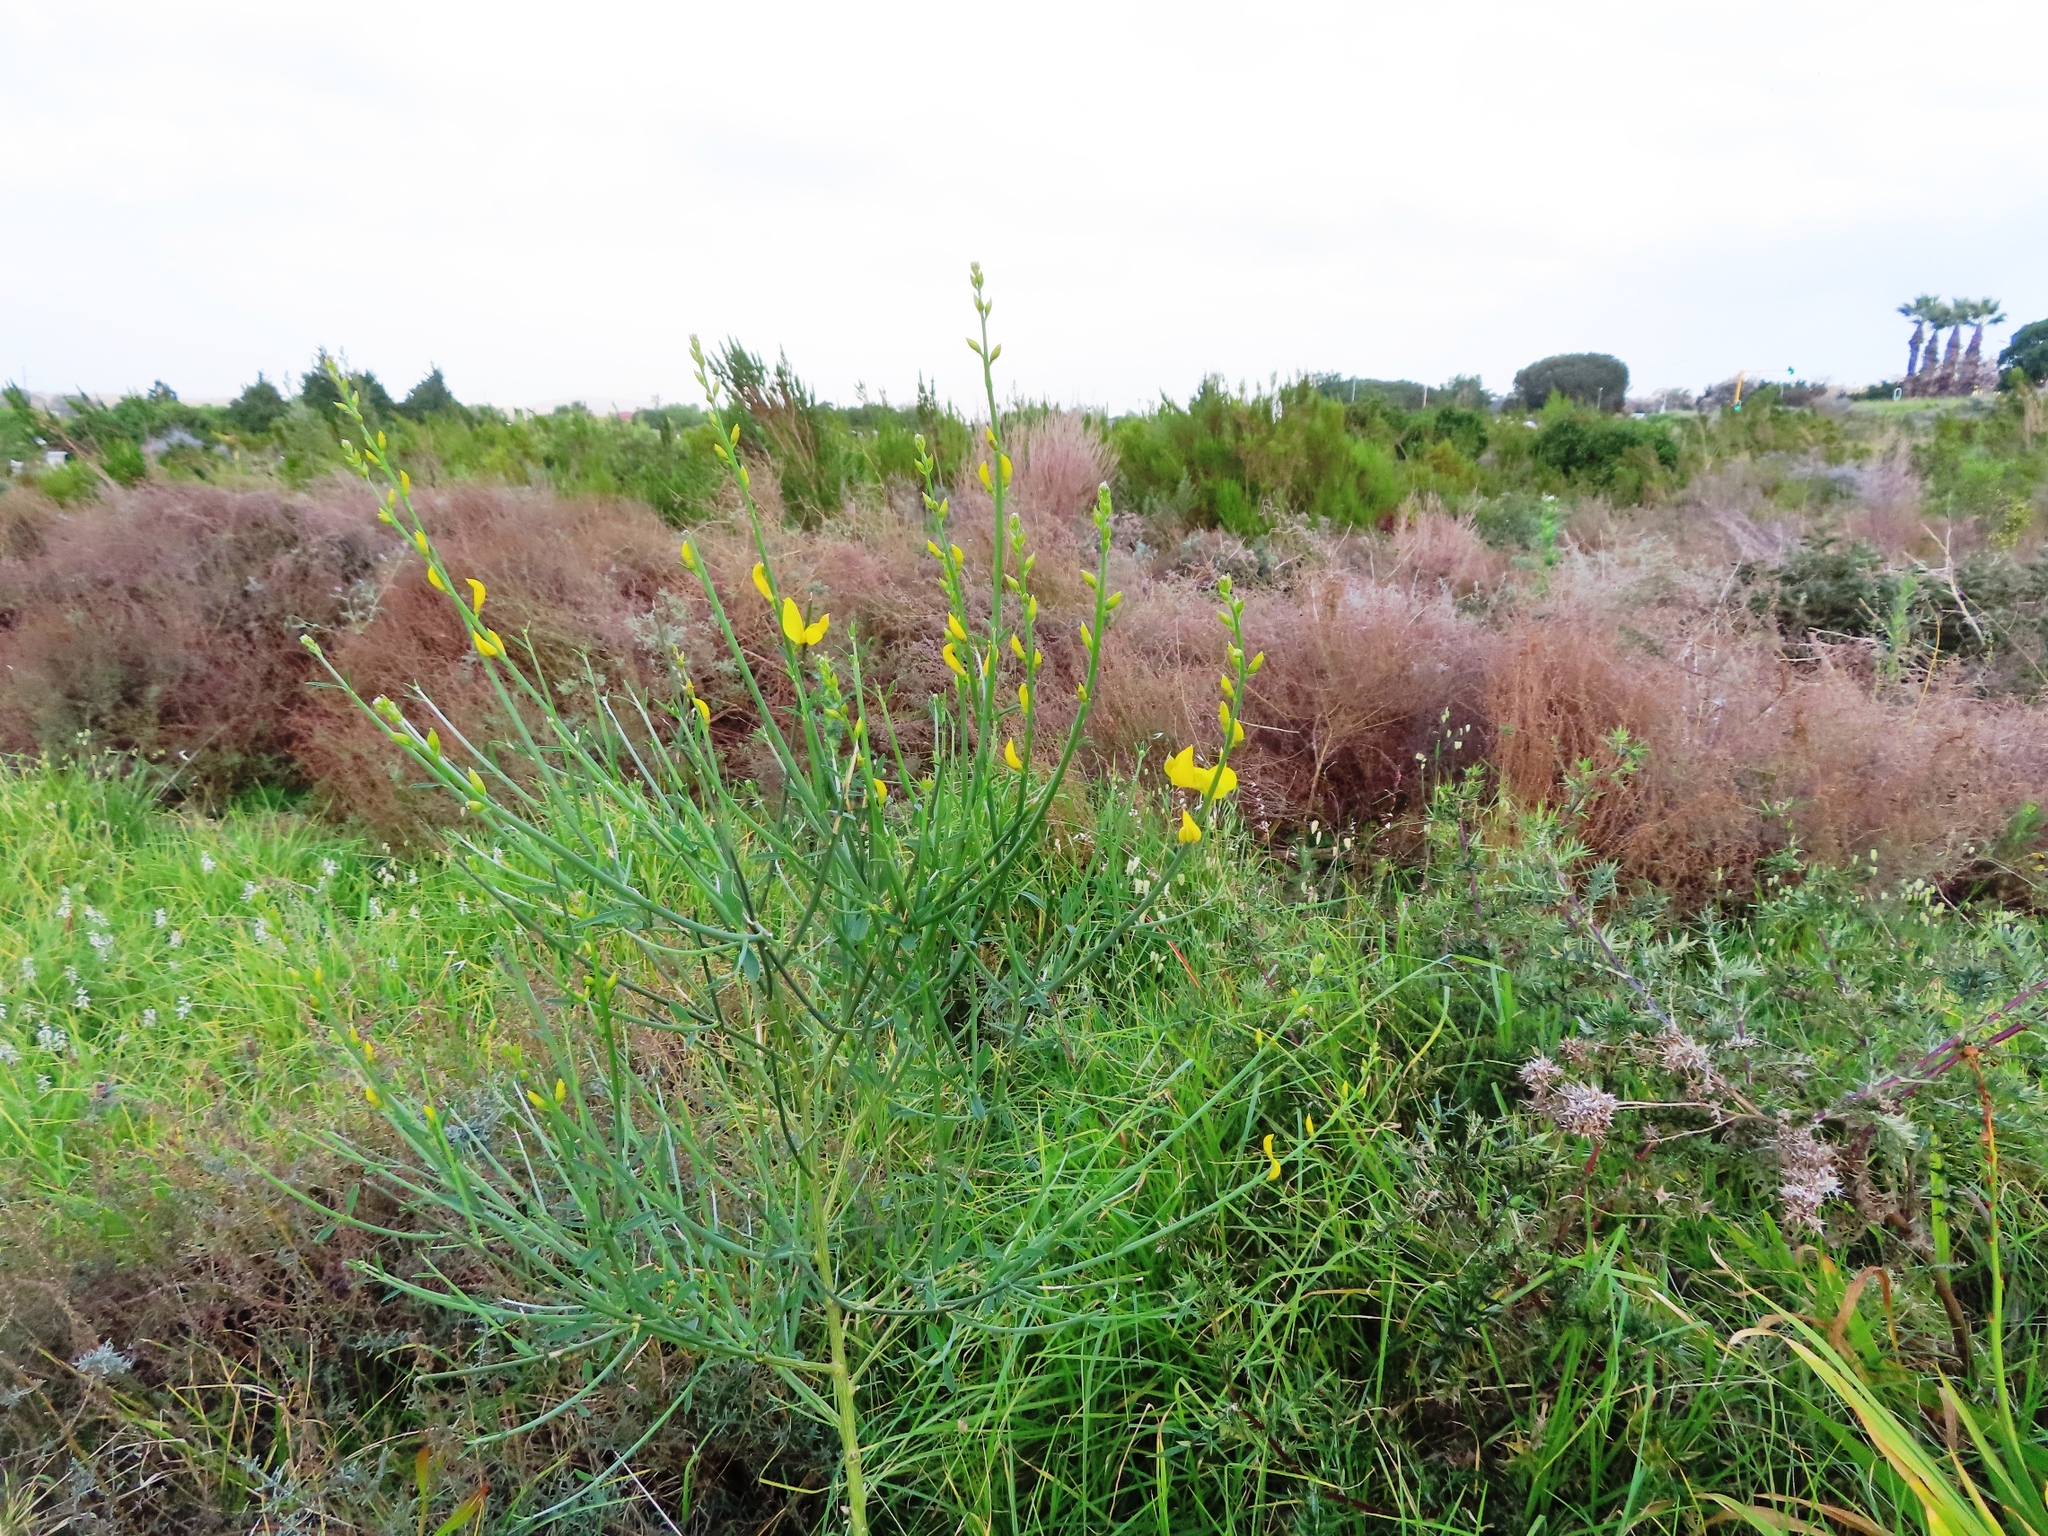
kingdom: Plantae
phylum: Tracheophyta
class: Magnoliopsida
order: Fabales
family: Fabaceae
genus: Spartium
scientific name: Spartium junceum
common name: Spanish broom
